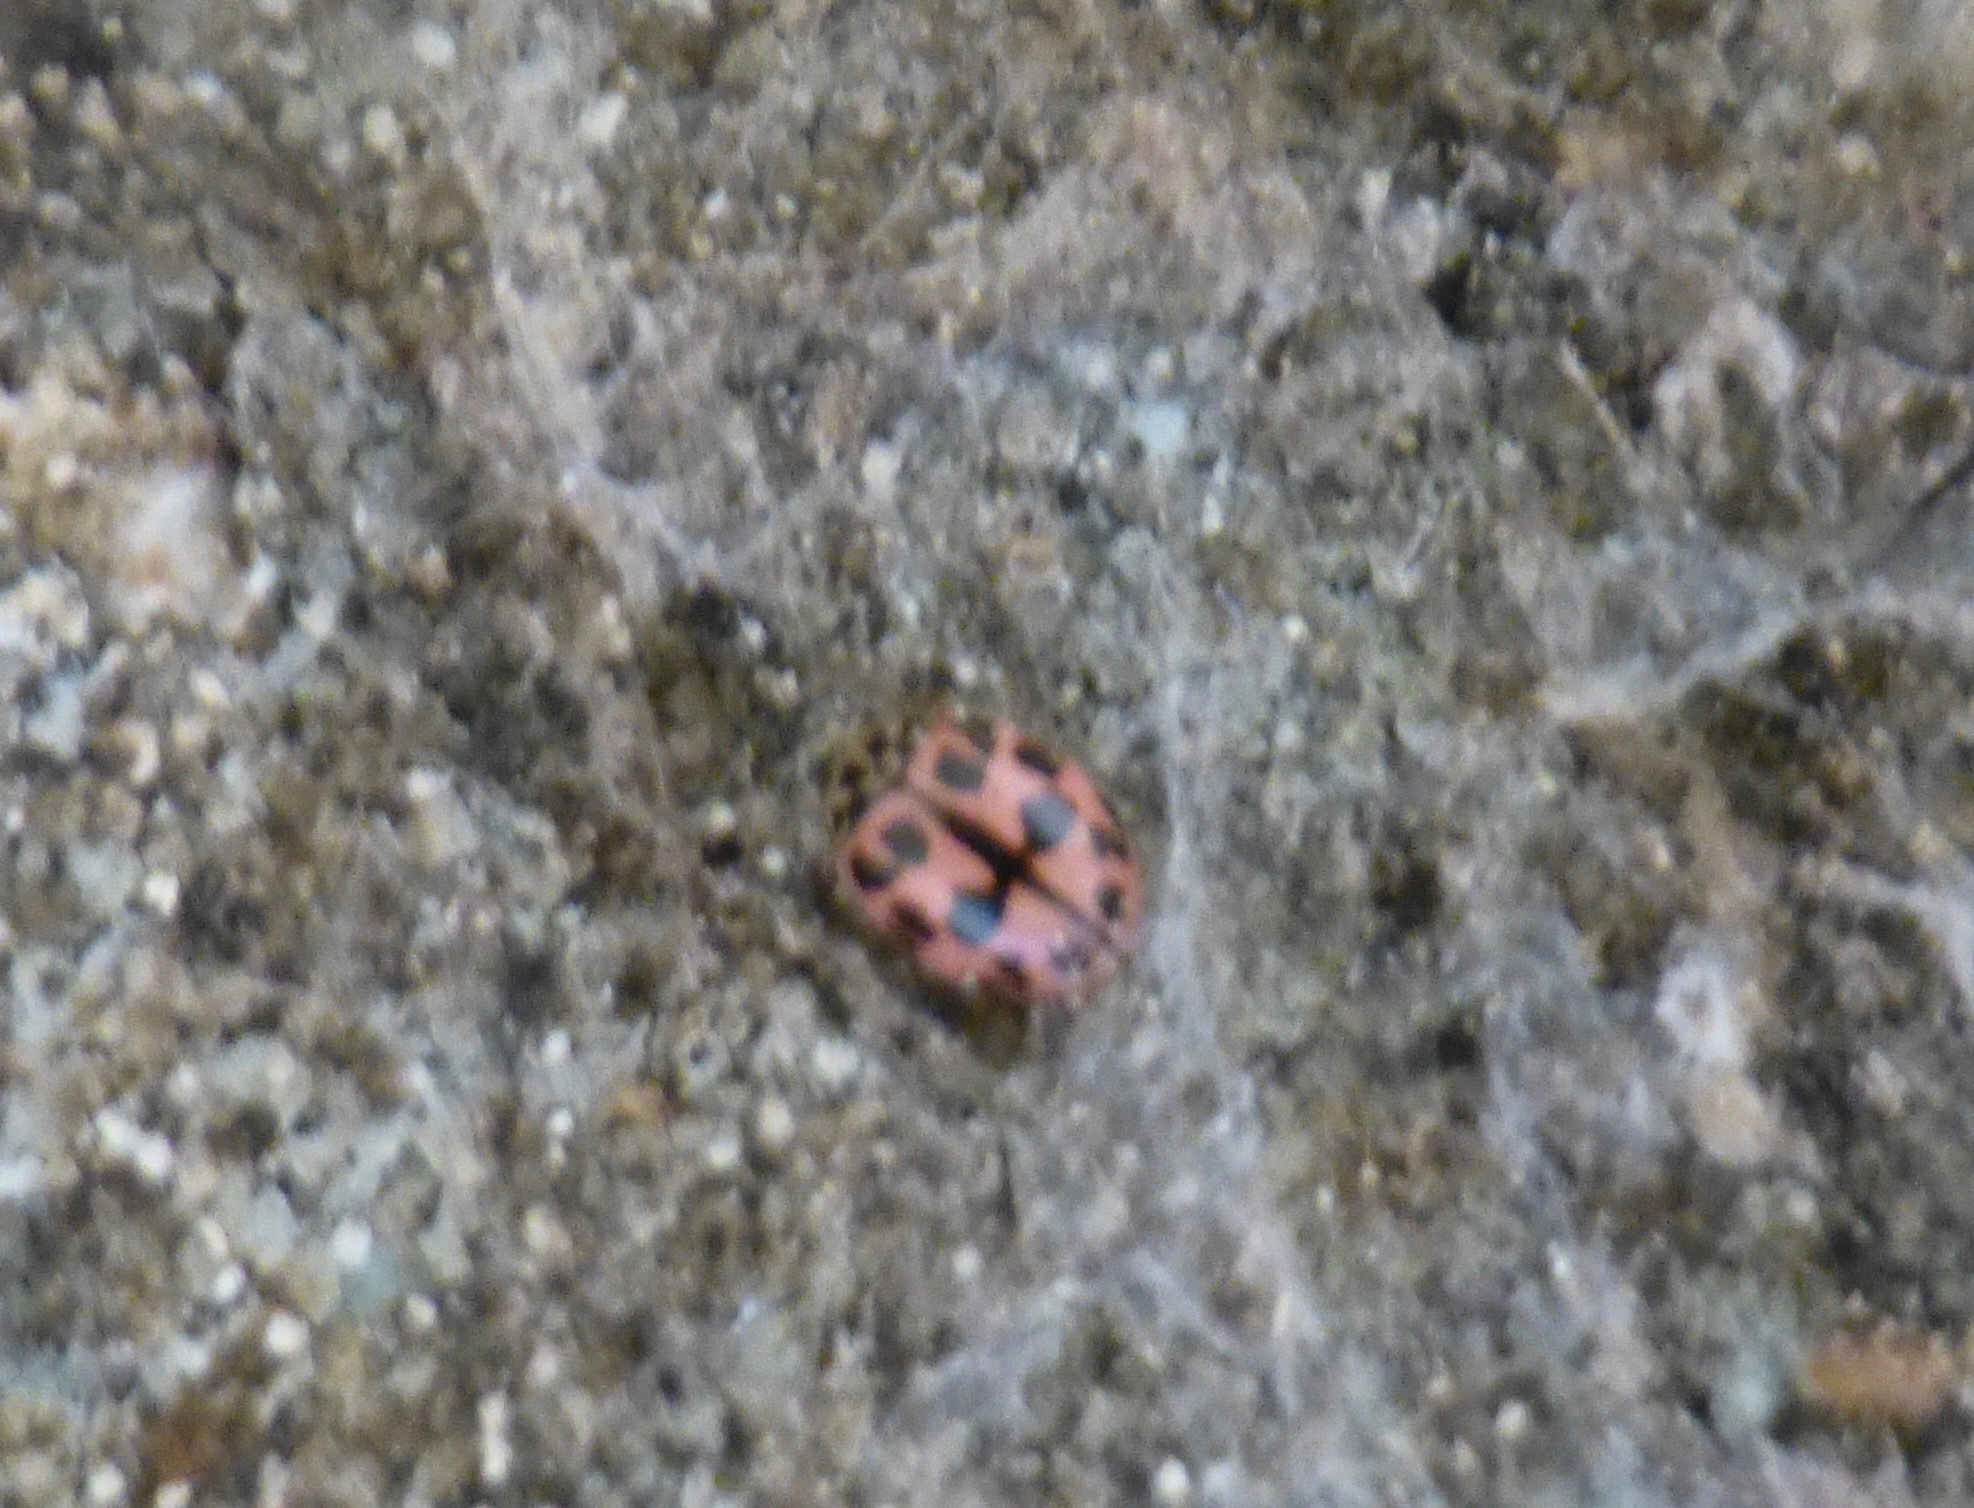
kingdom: Animalia
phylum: Arthropoda
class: Insecta
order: Coleoptera
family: Coccinellidae
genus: Oenopia
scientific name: Oenopia conglobata
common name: Ladybird beetle
